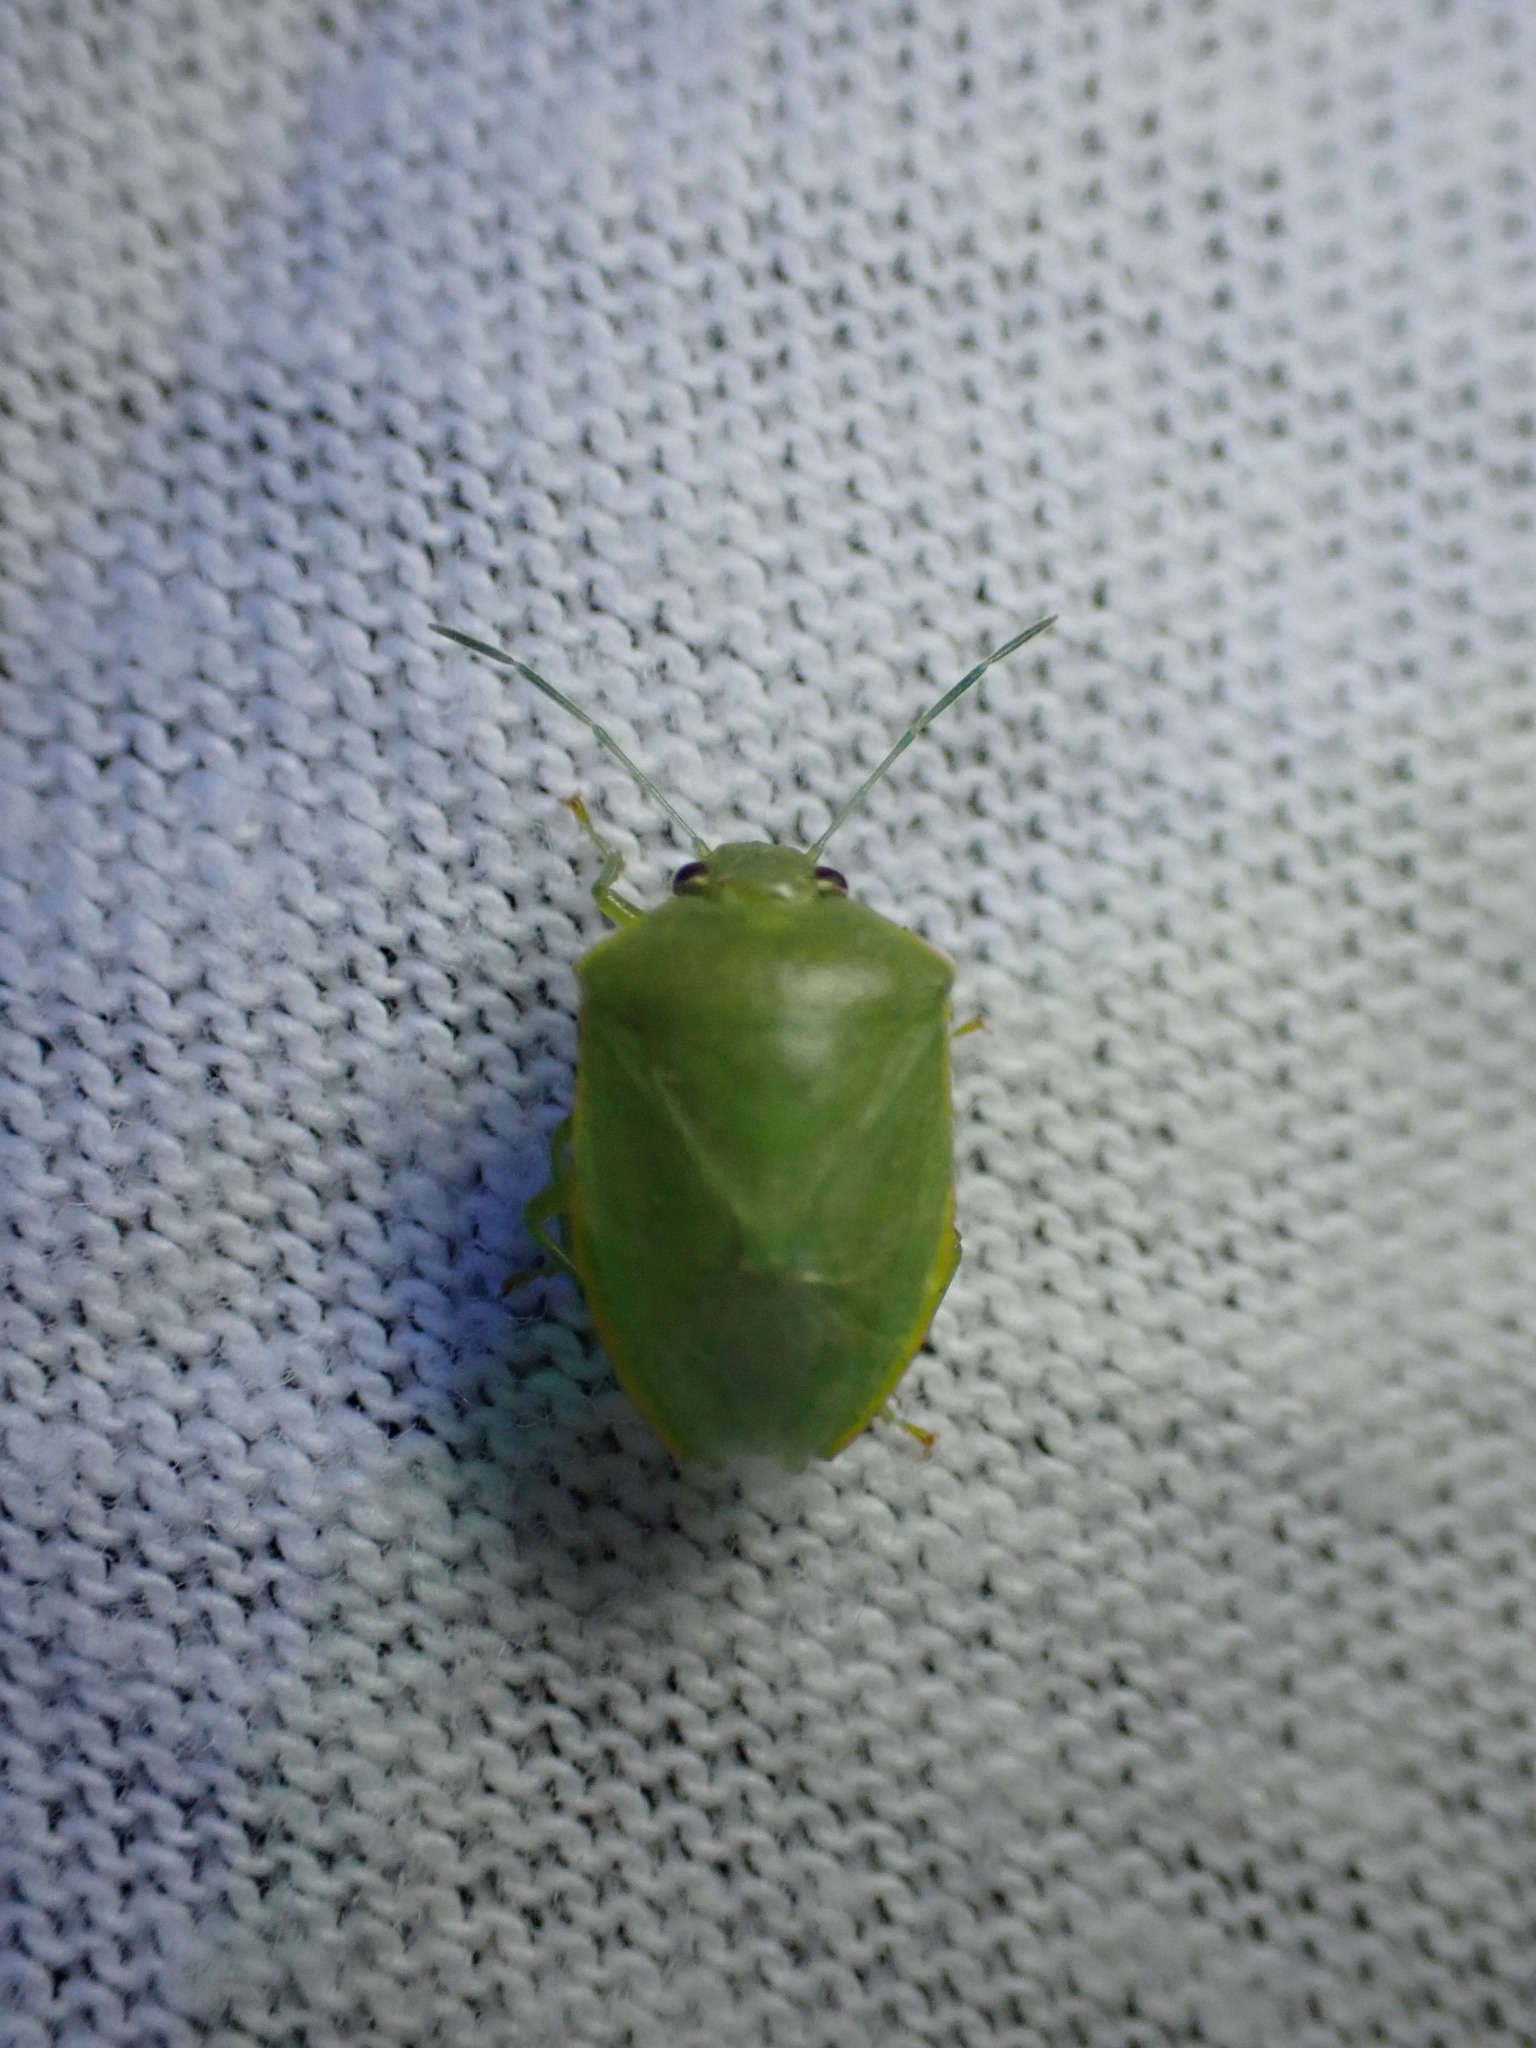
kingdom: Animalia
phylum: Arthropoda
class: Insecta
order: Hemiptera
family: Pentatomidae
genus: Acrosternum
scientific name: Acrosternum millierei
